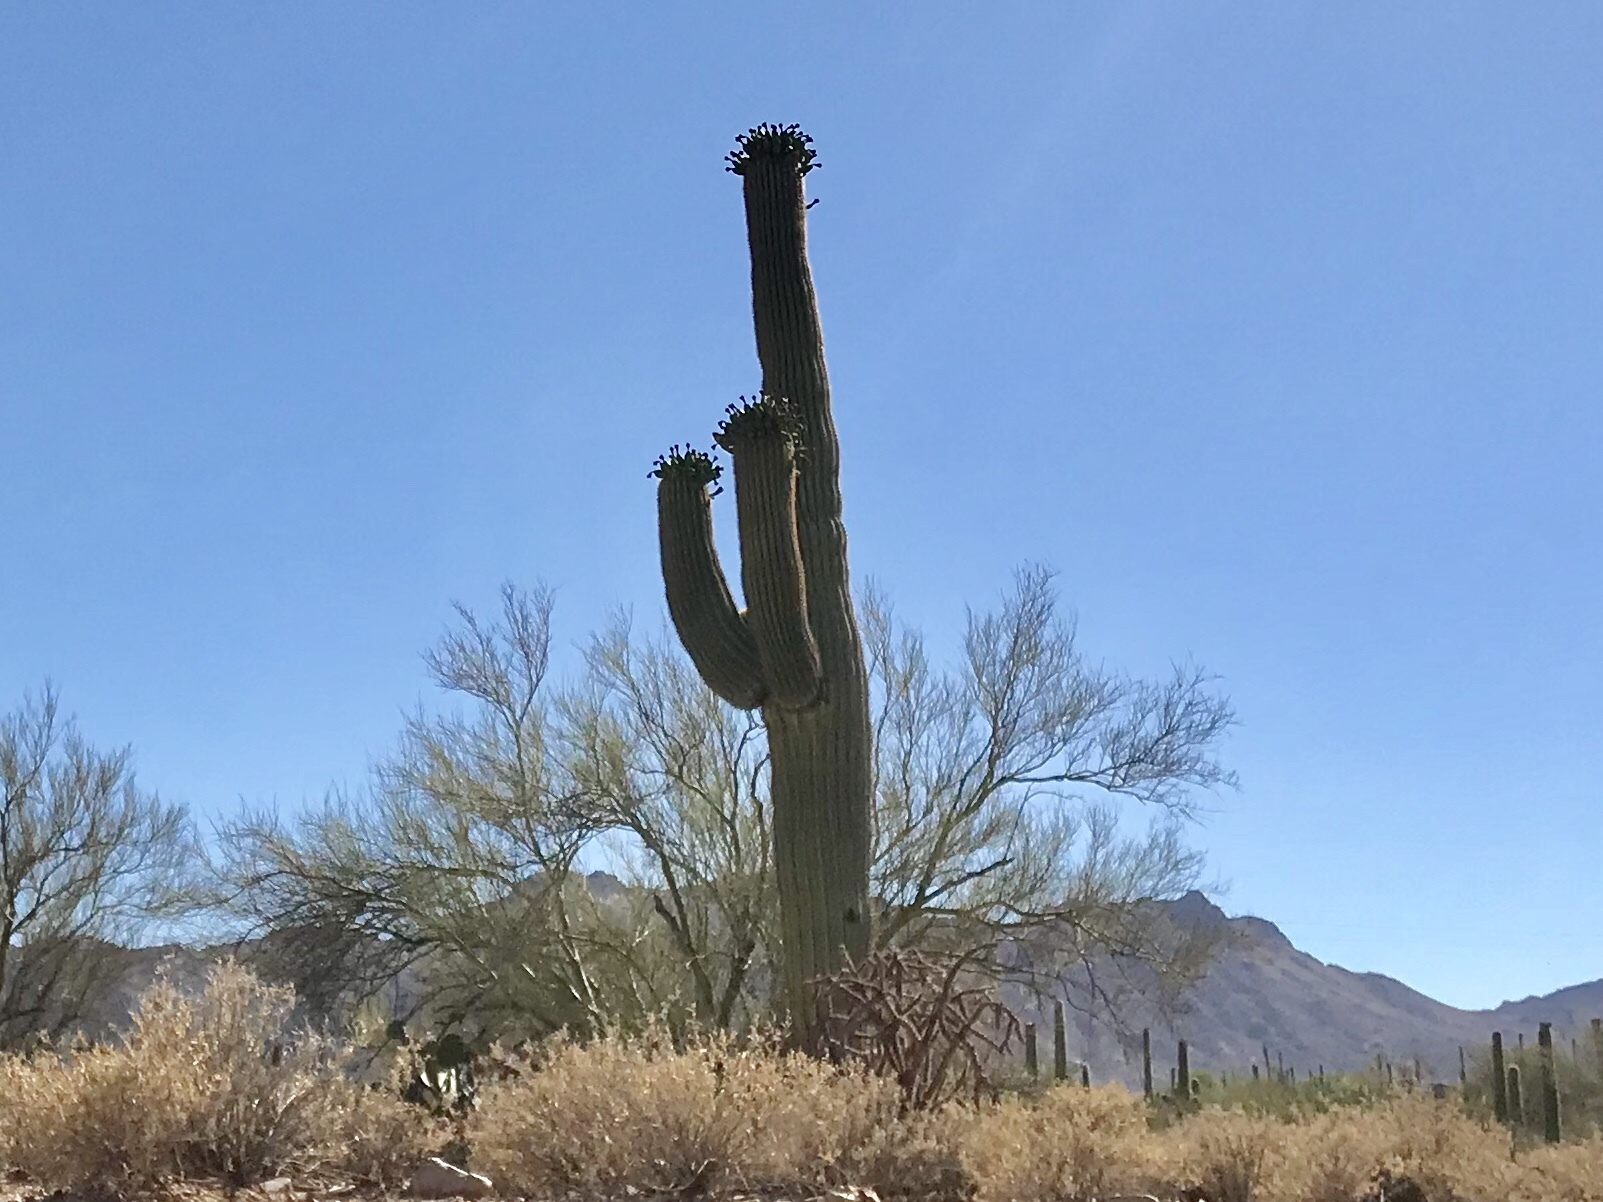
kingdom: Plantae
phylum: Tracheophyta
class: Magnoliopsida
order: Caryophyllales
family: Cactaceae
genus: Carnegiea
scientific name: Carnegiea gigantea
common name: Saguaro
